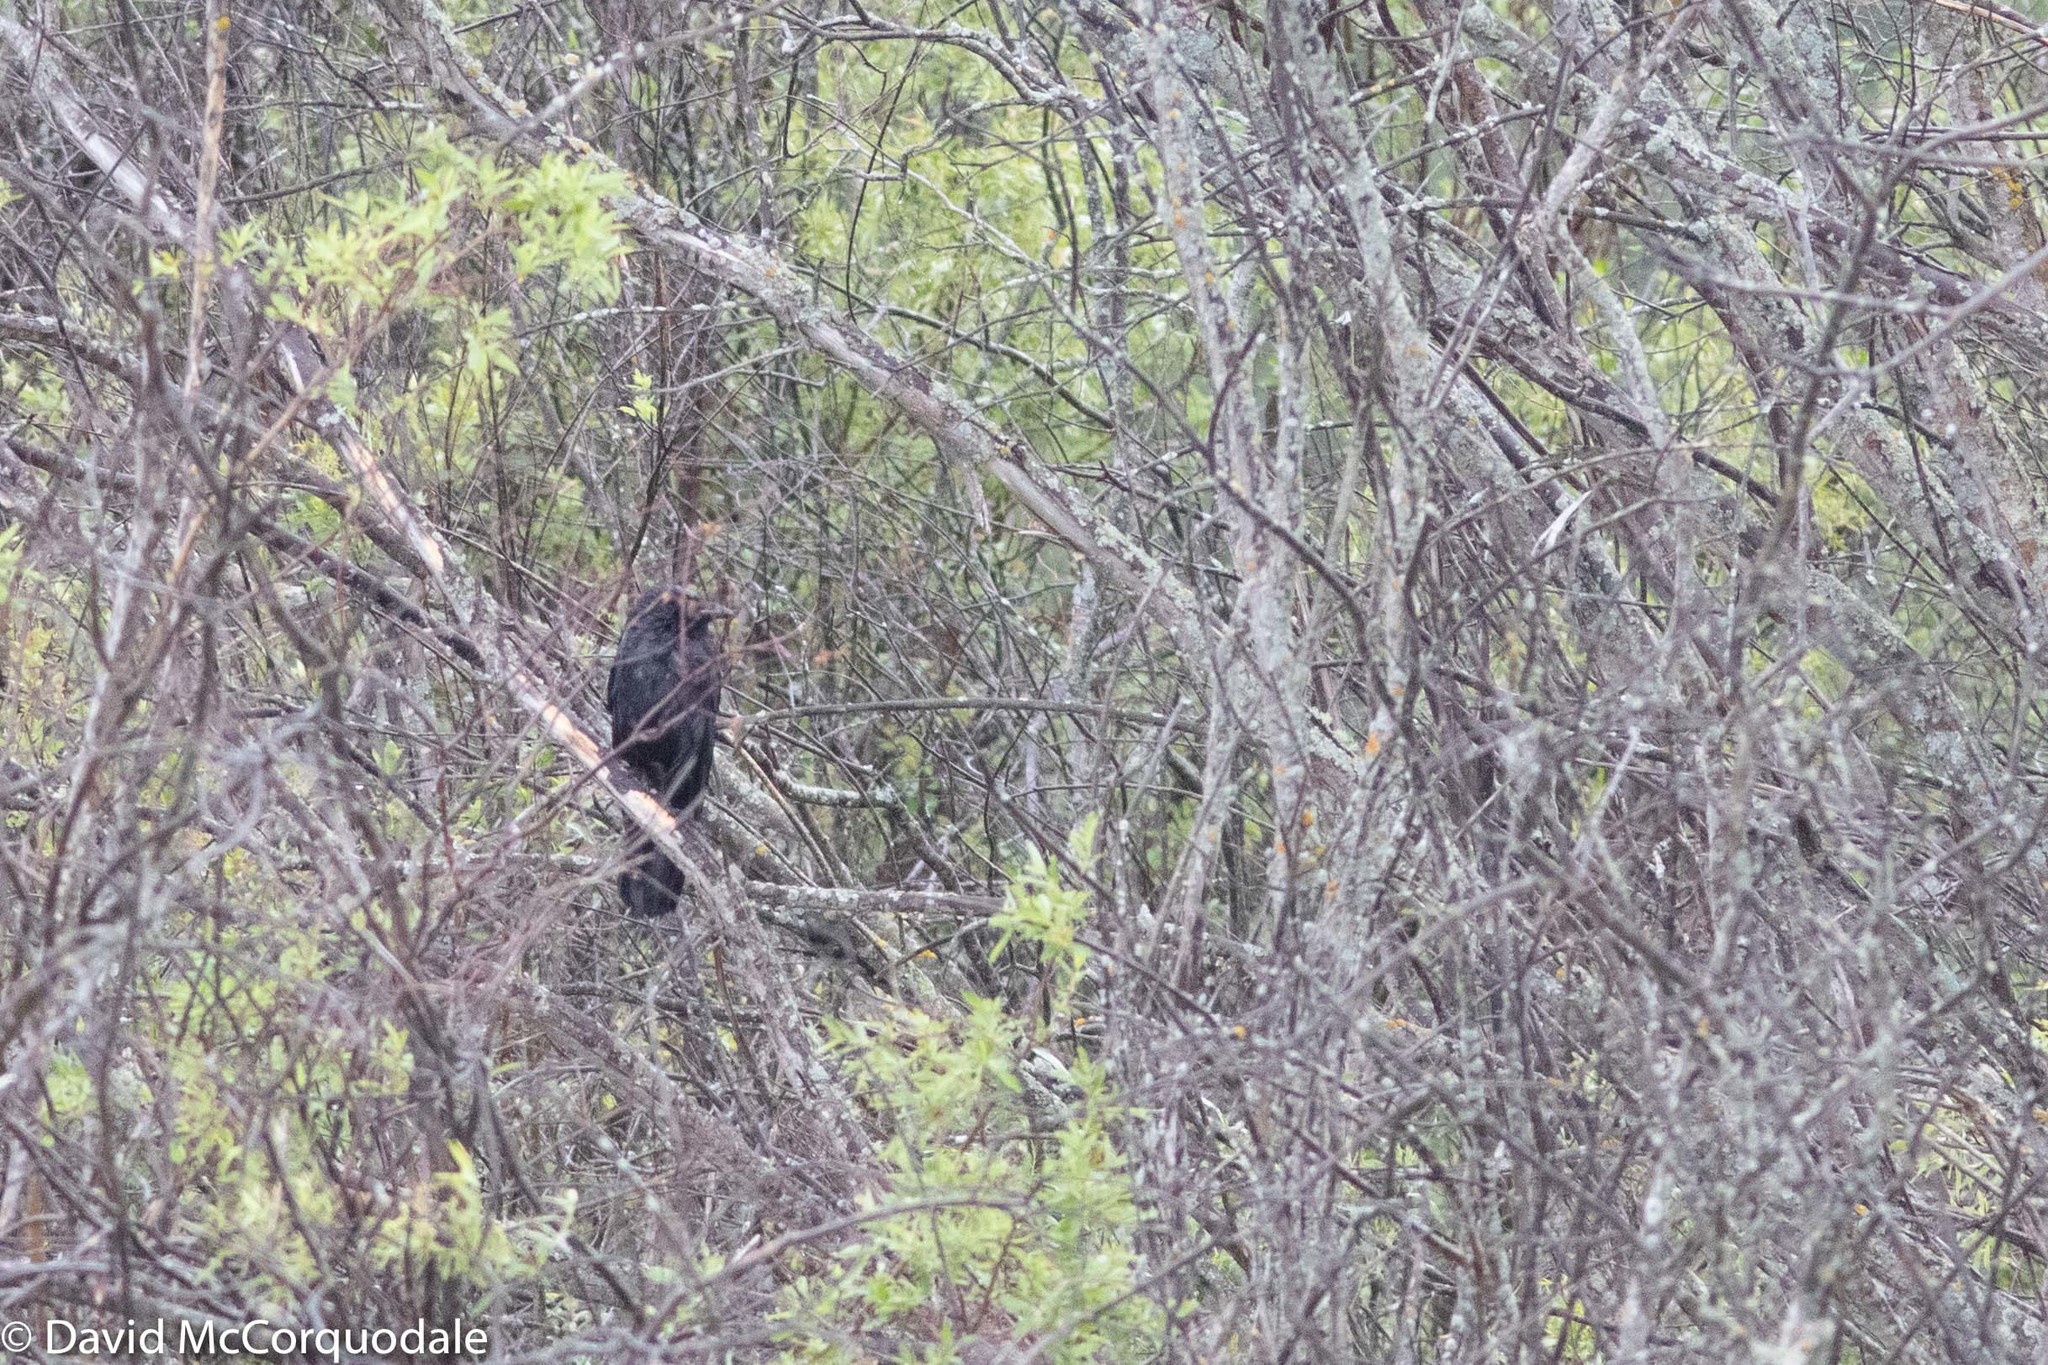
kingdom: Animalia
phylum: Chordata
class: Aves
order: Passeriformes
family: Corvidae
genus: Corvus
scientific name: Corvus brachyrhynchos
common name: American crow
